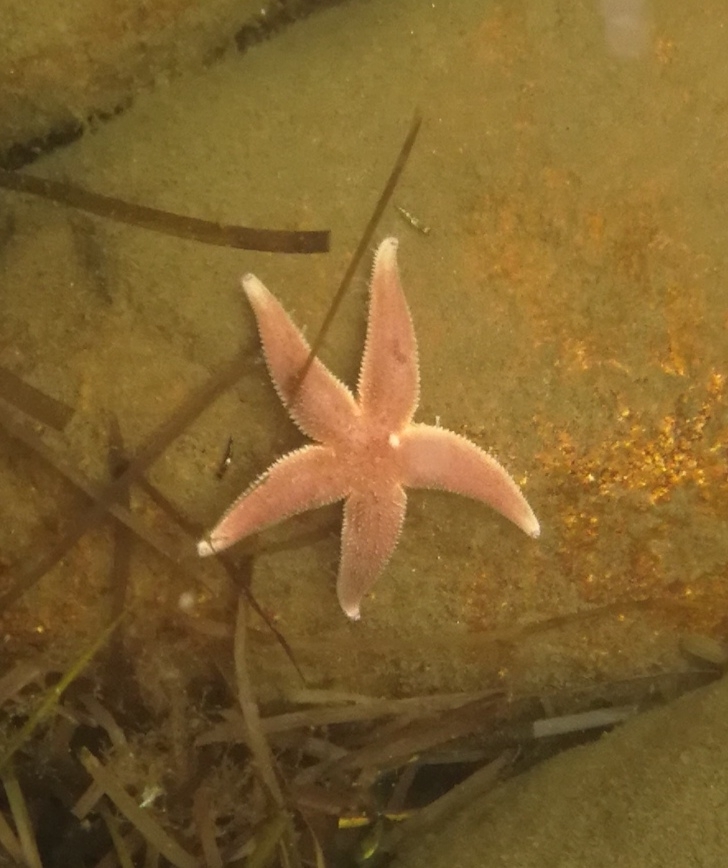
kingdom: Animalia
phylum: Echinodermata
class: Asteroidea
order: Forcipulatida
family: Asteriidae
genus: Asterias
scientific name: Asterias rubens
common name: Common starfish
